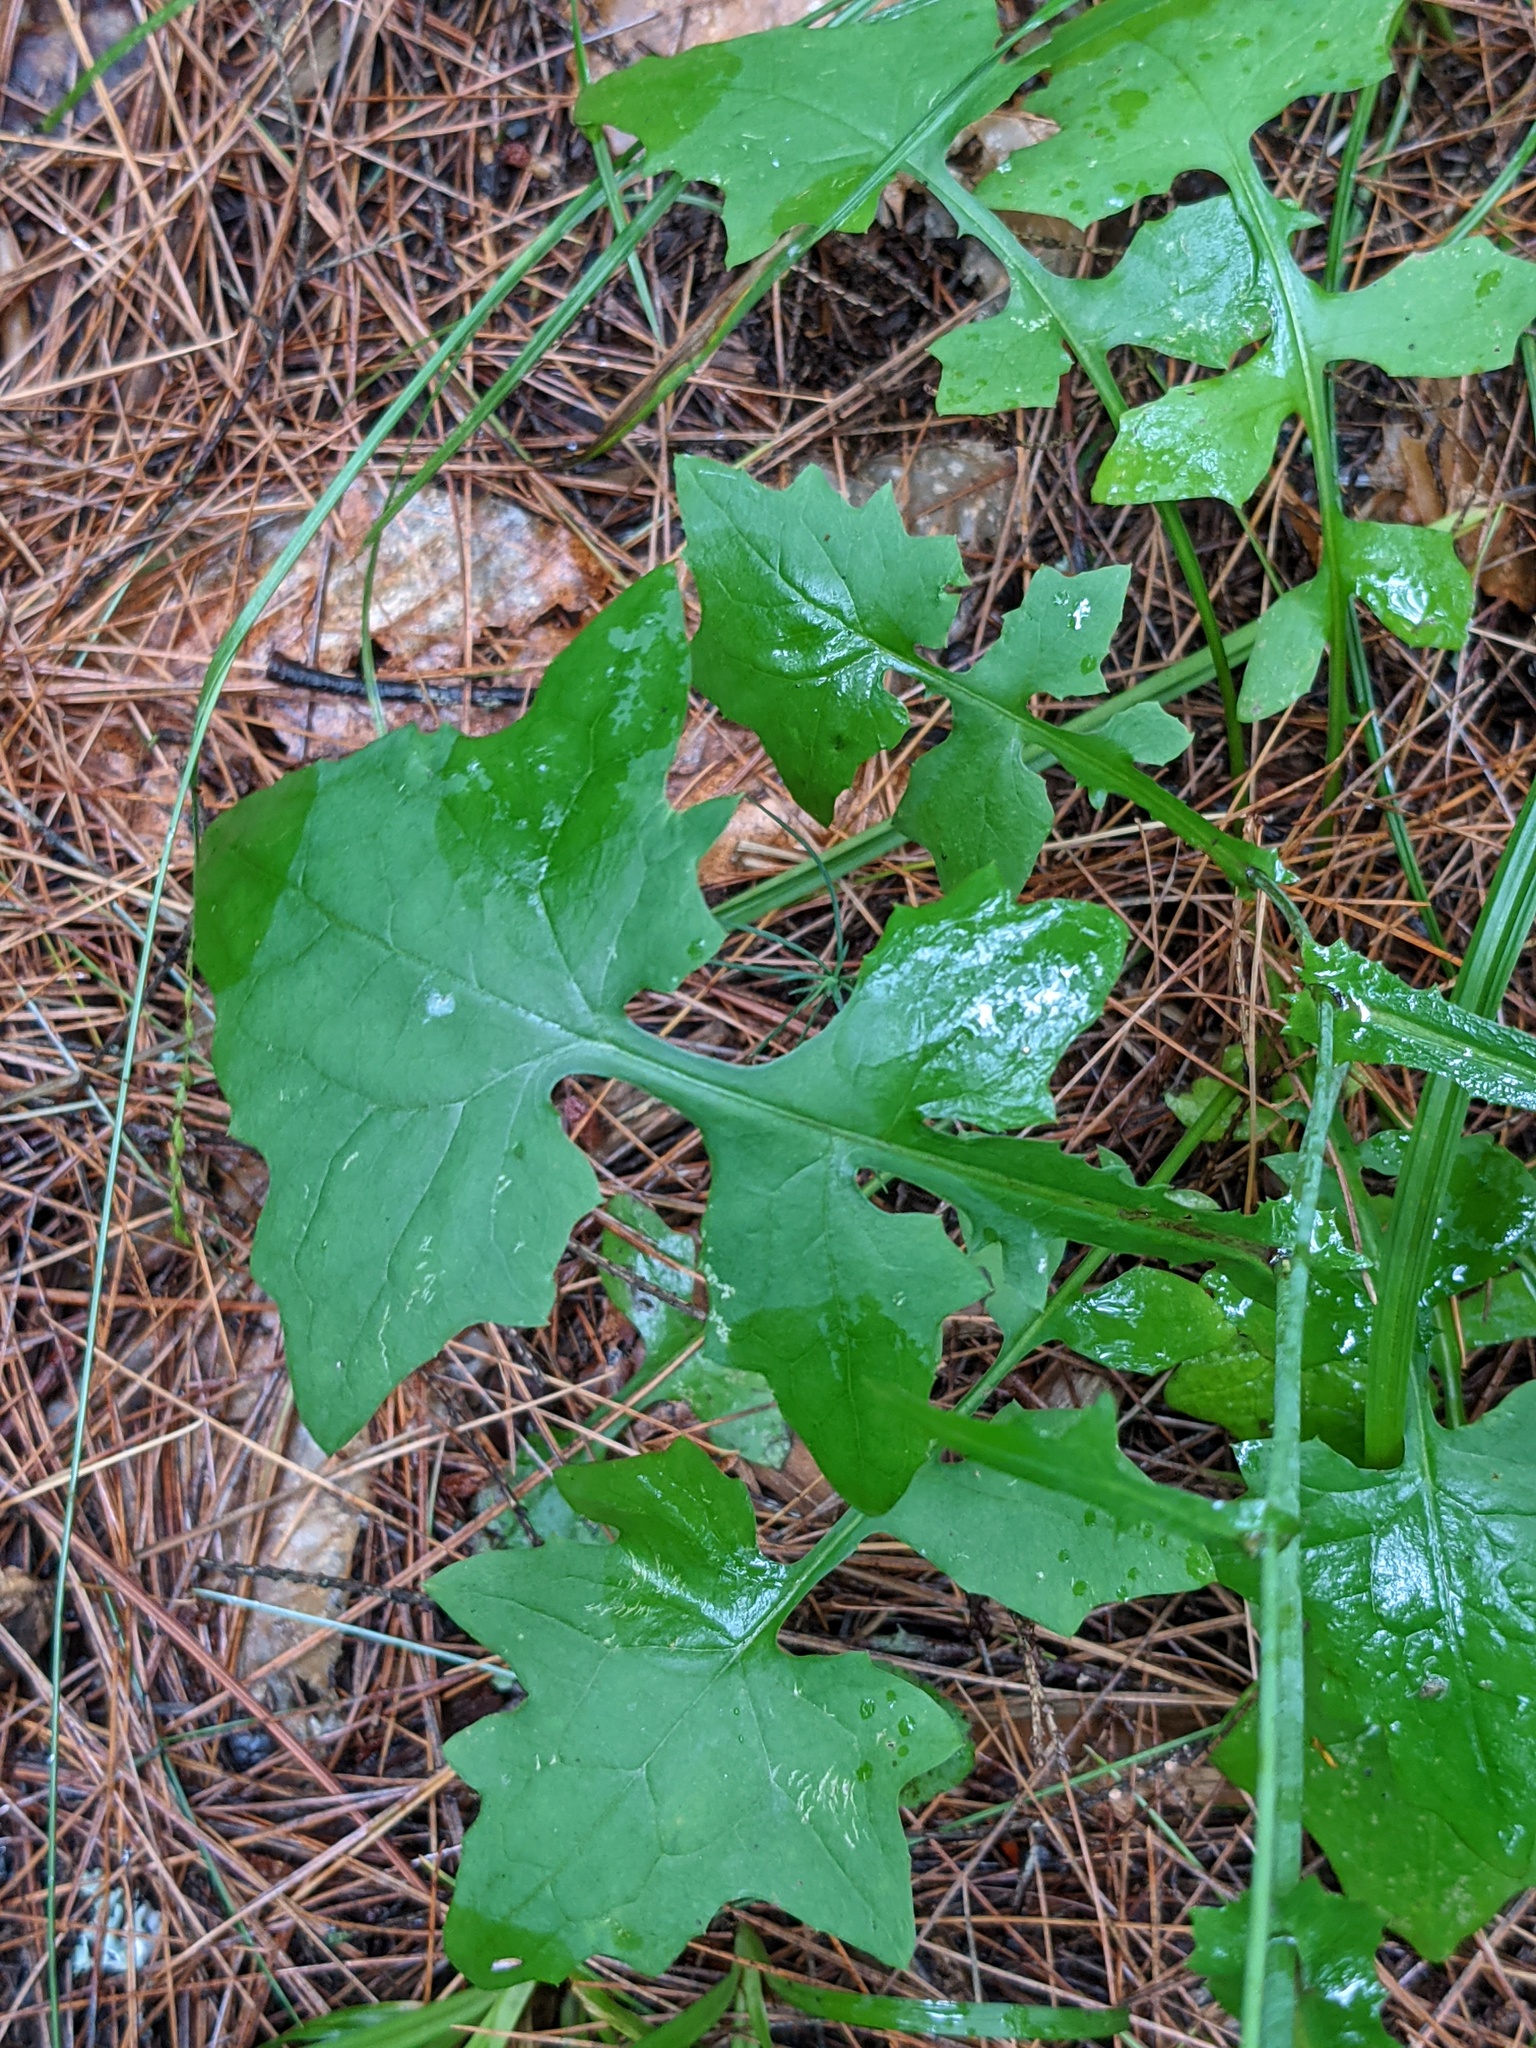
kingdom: Plantae
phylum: Tracheophyta
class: Magnoliopsida
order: Asterales
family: Asteraceae
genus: Mycelis
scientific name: Mycelis muralis
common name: Wall lettuce
